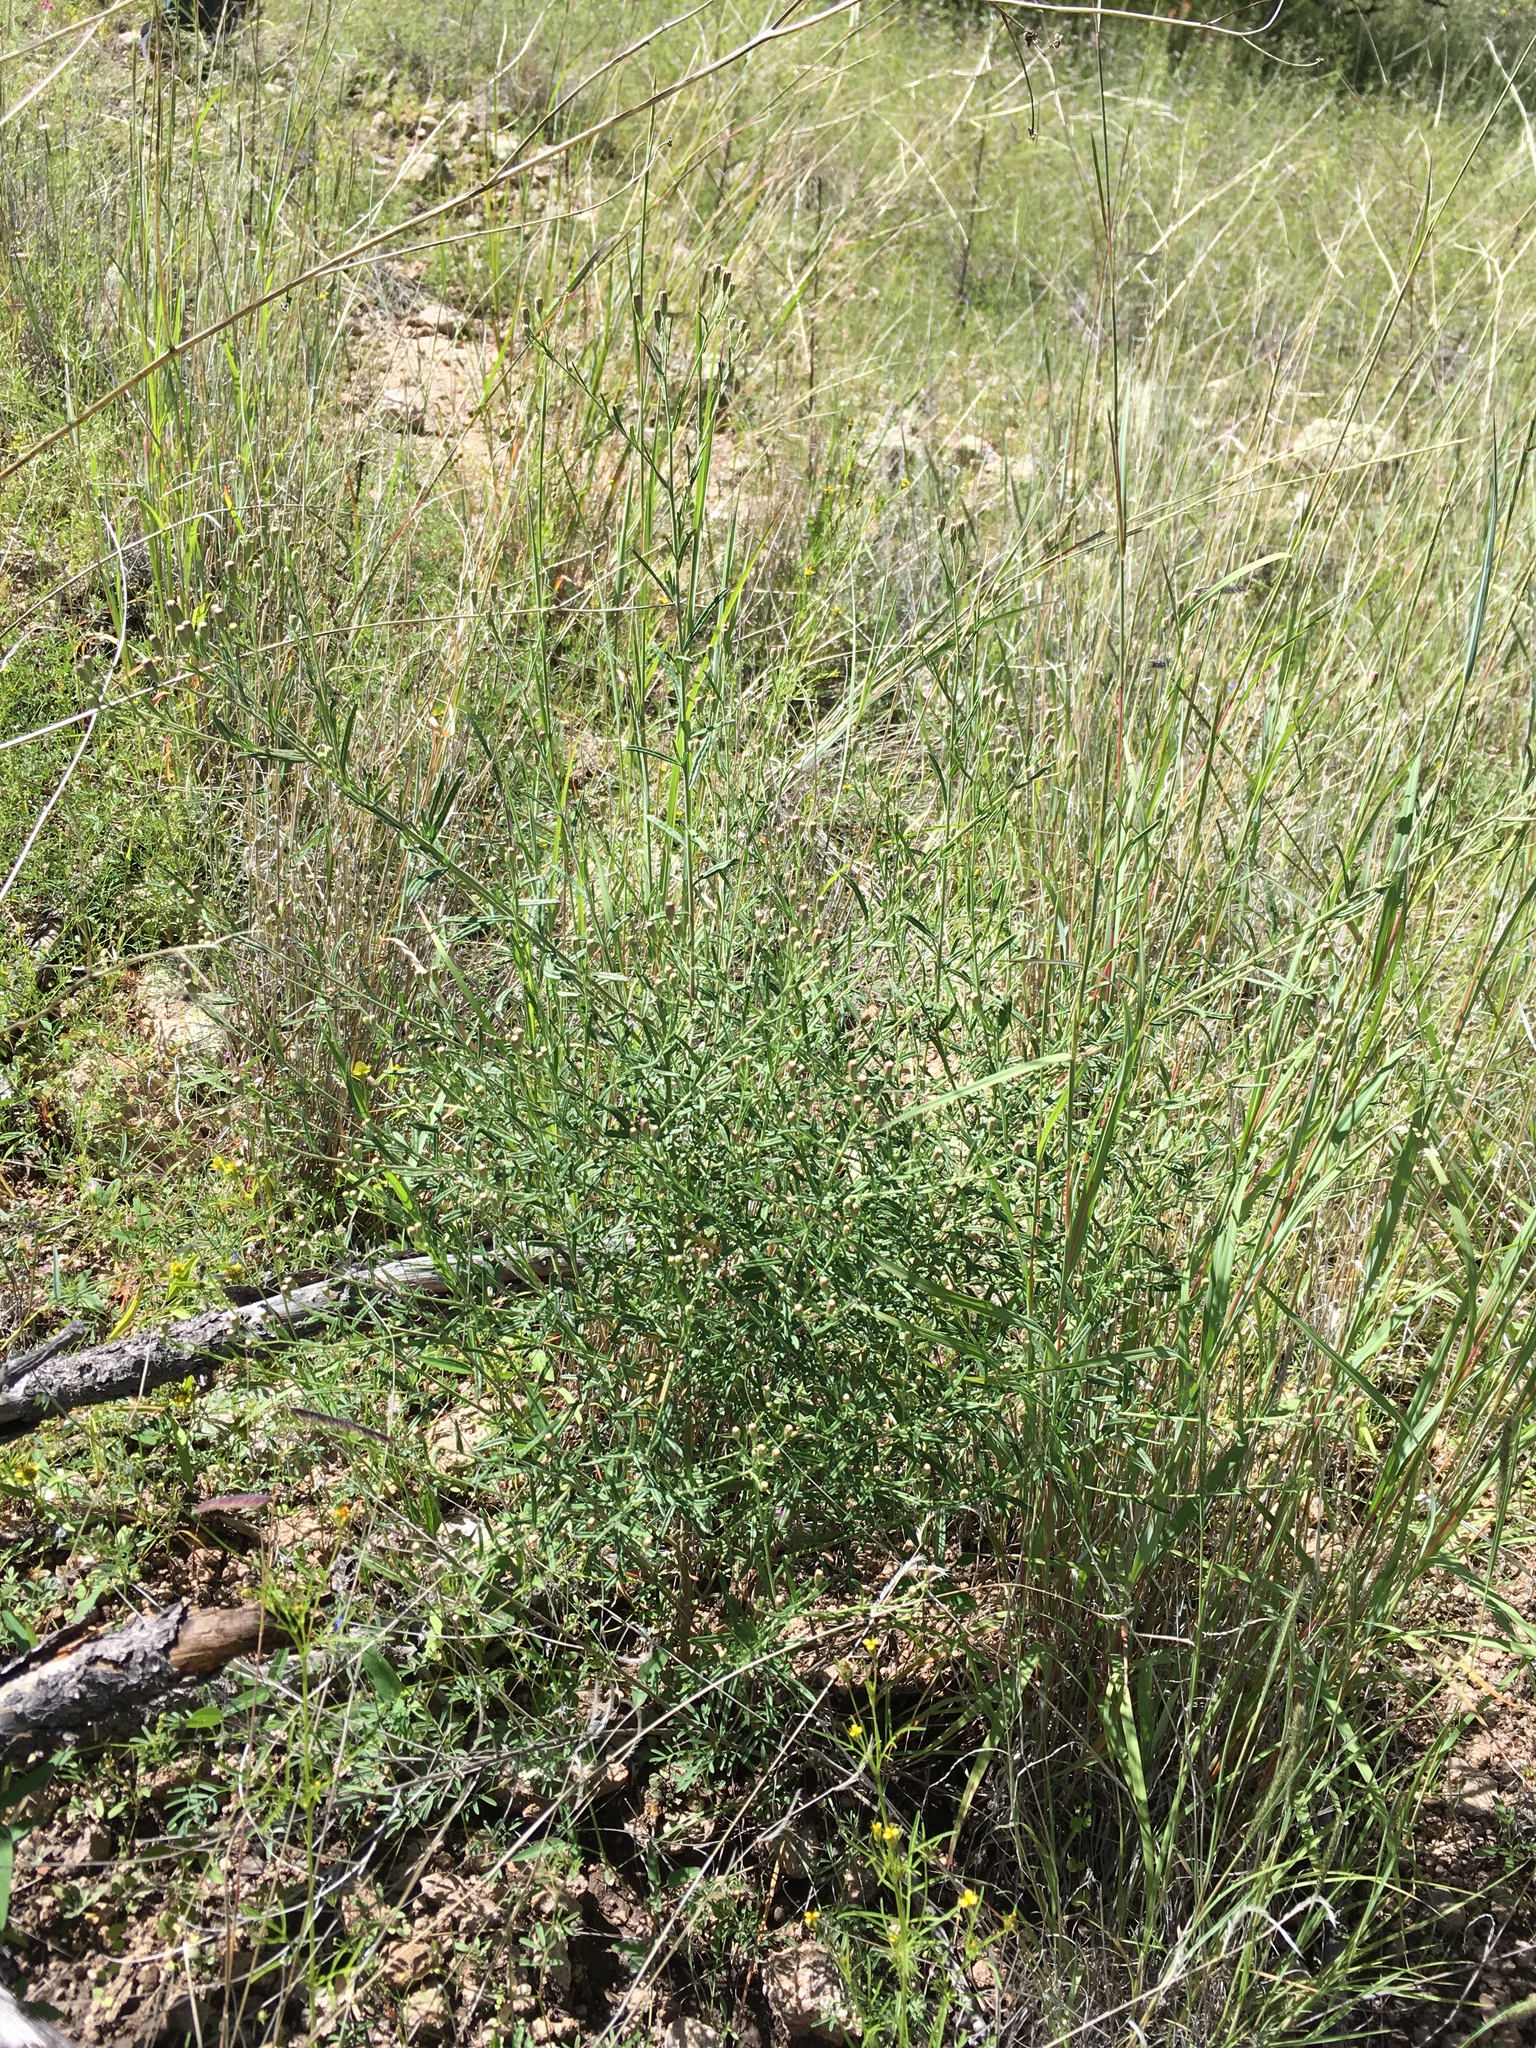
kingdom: Plantae
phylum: Tracheophyta
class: Magnoliopsida
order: Asterales
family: Asteraceae
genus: Brickellia
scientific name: Brickellia eupatorioides
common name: False boneset
